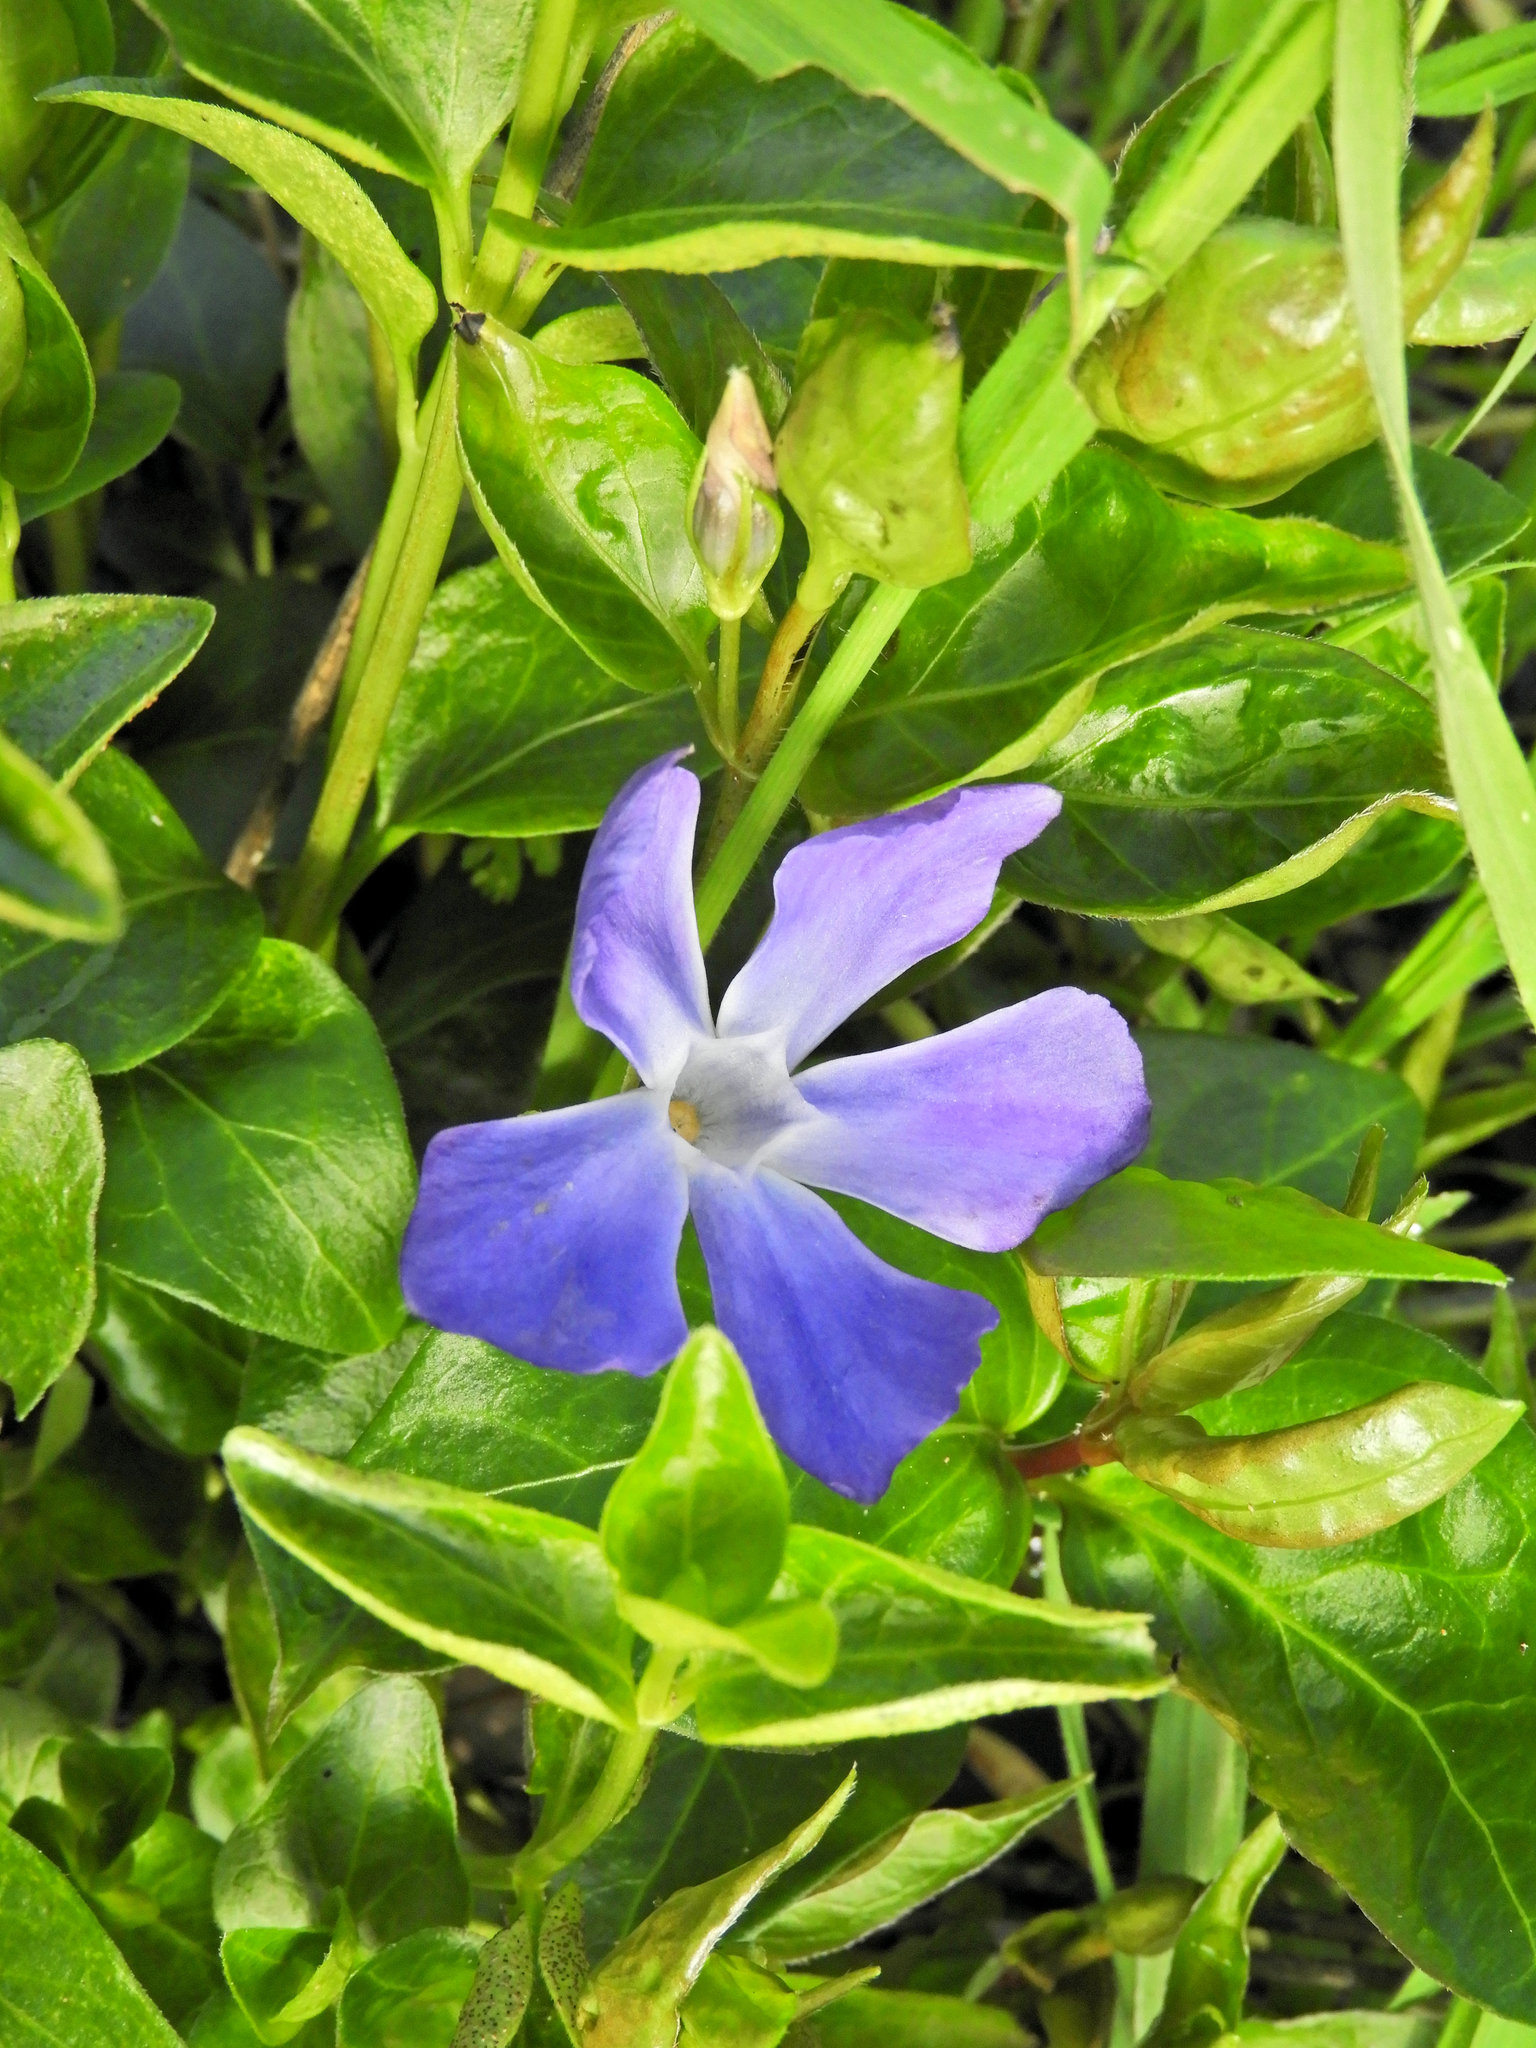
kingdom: Plantae
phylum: Tracheophyta
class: Magnoliopsida
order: Gentianales
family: Apocynaceae
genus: Vinca
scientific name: Vinca major
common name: Greater periwinkle
